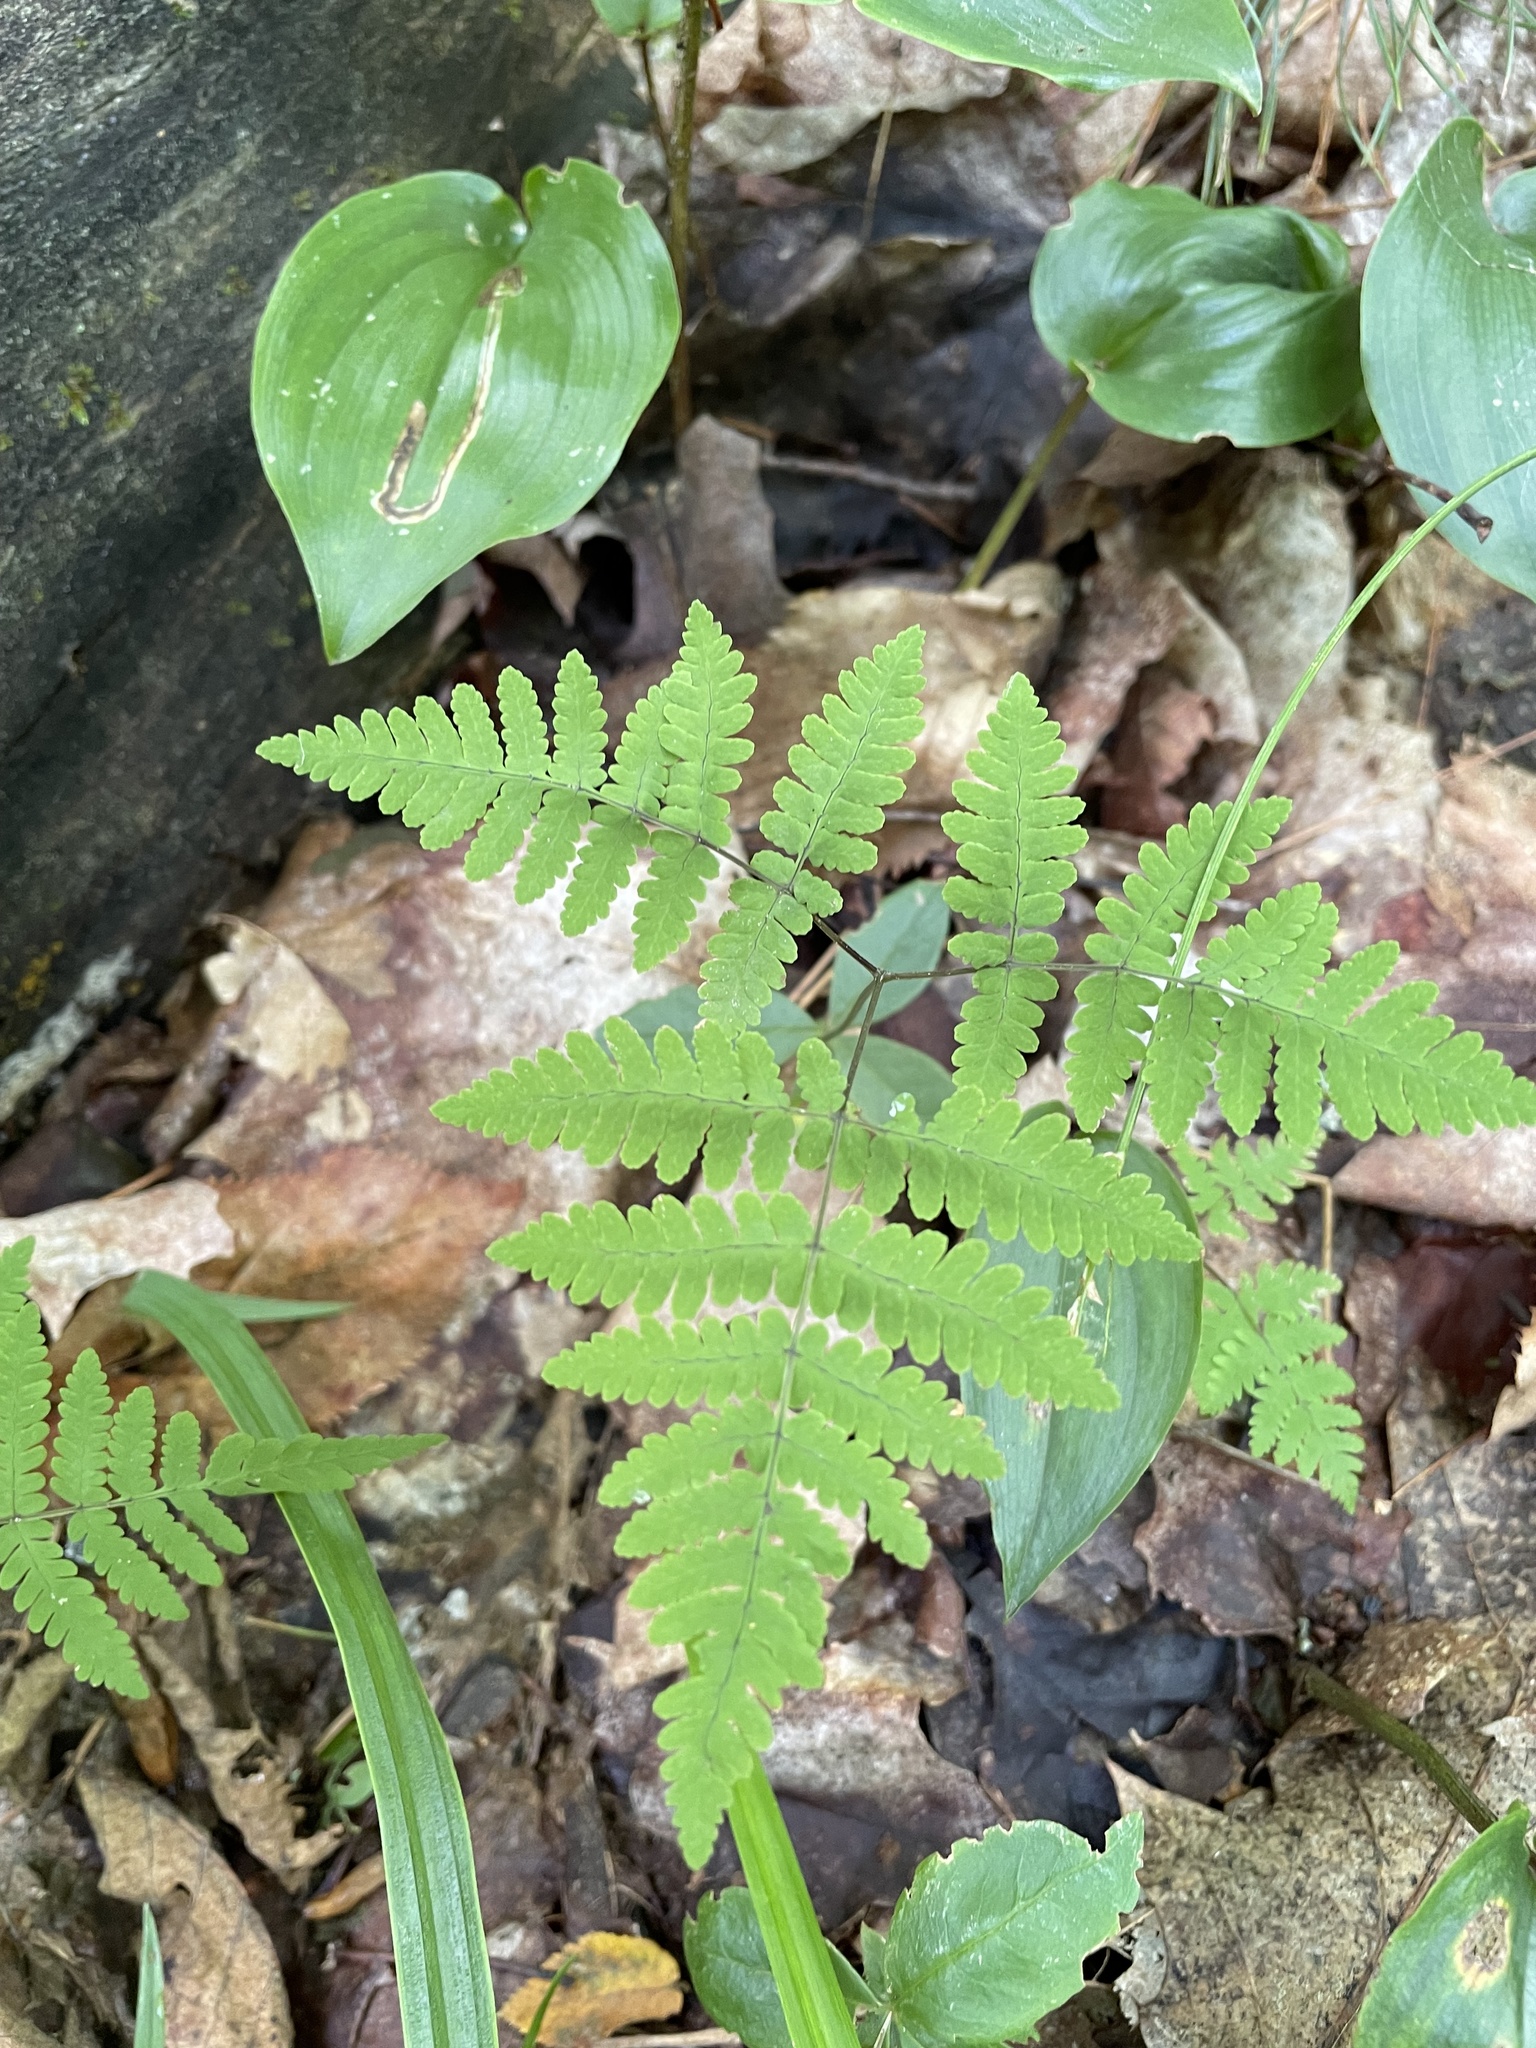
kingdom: Plantae
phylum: Tracheophyta
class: Polypodiopsida
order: Polypodiales
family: Cystopteridaceae
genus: Gymnocarpium
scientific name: Gymnocarpium dryopteris
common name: Oak fern
